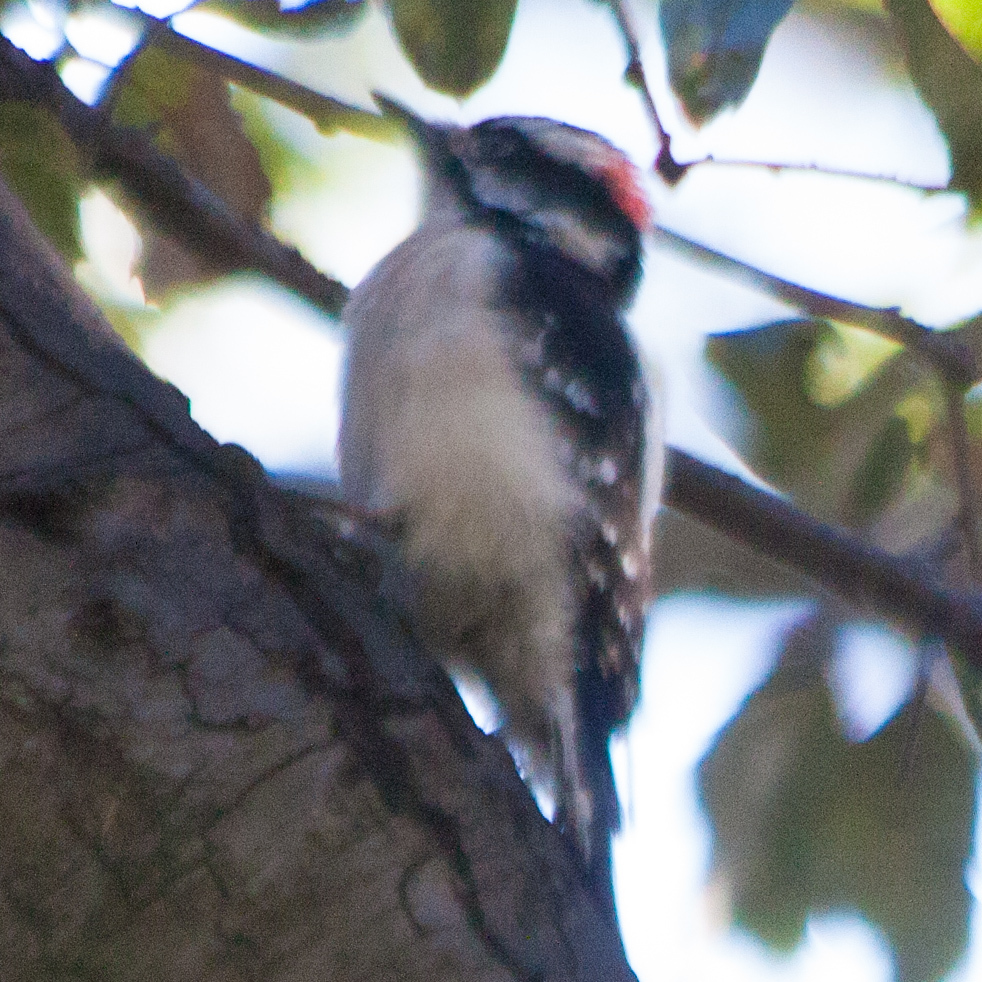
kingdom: Animalia
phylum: Chordata
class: Aves
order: Piciformes
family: Picidae
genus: Dryobates
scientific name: Dryobates pubescens
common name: Downy woodpecker
